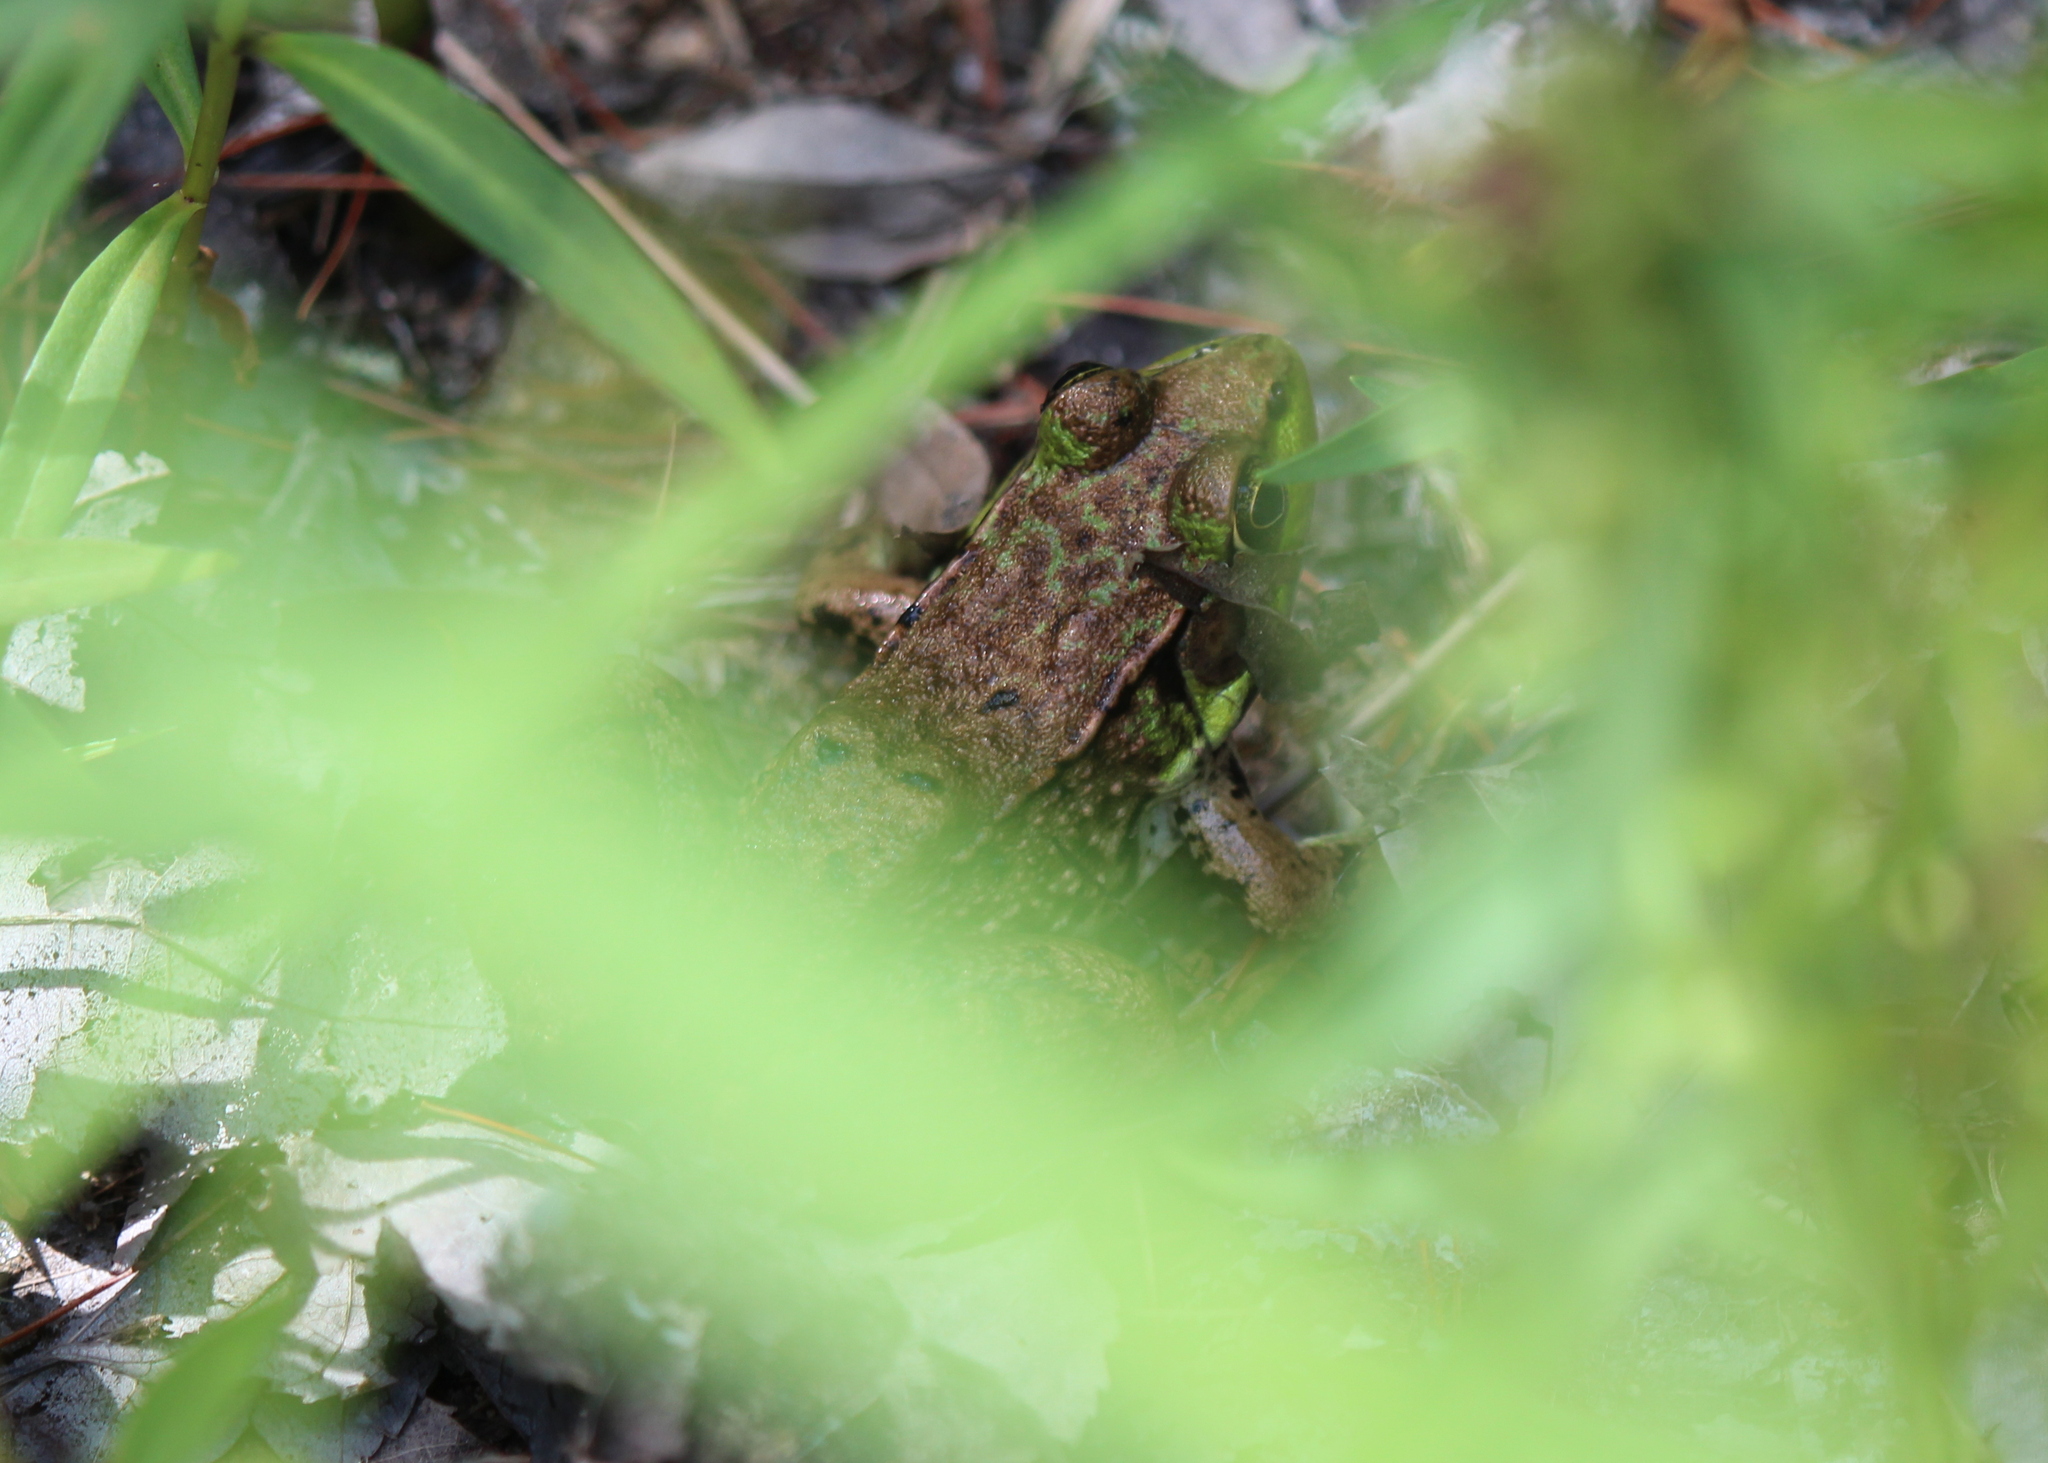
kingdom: Animalia
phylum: Chordata
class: Amphibia
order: Anura
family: Ranidae
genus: Lithobates
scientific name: Lithobates clamitans
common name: Green frog
